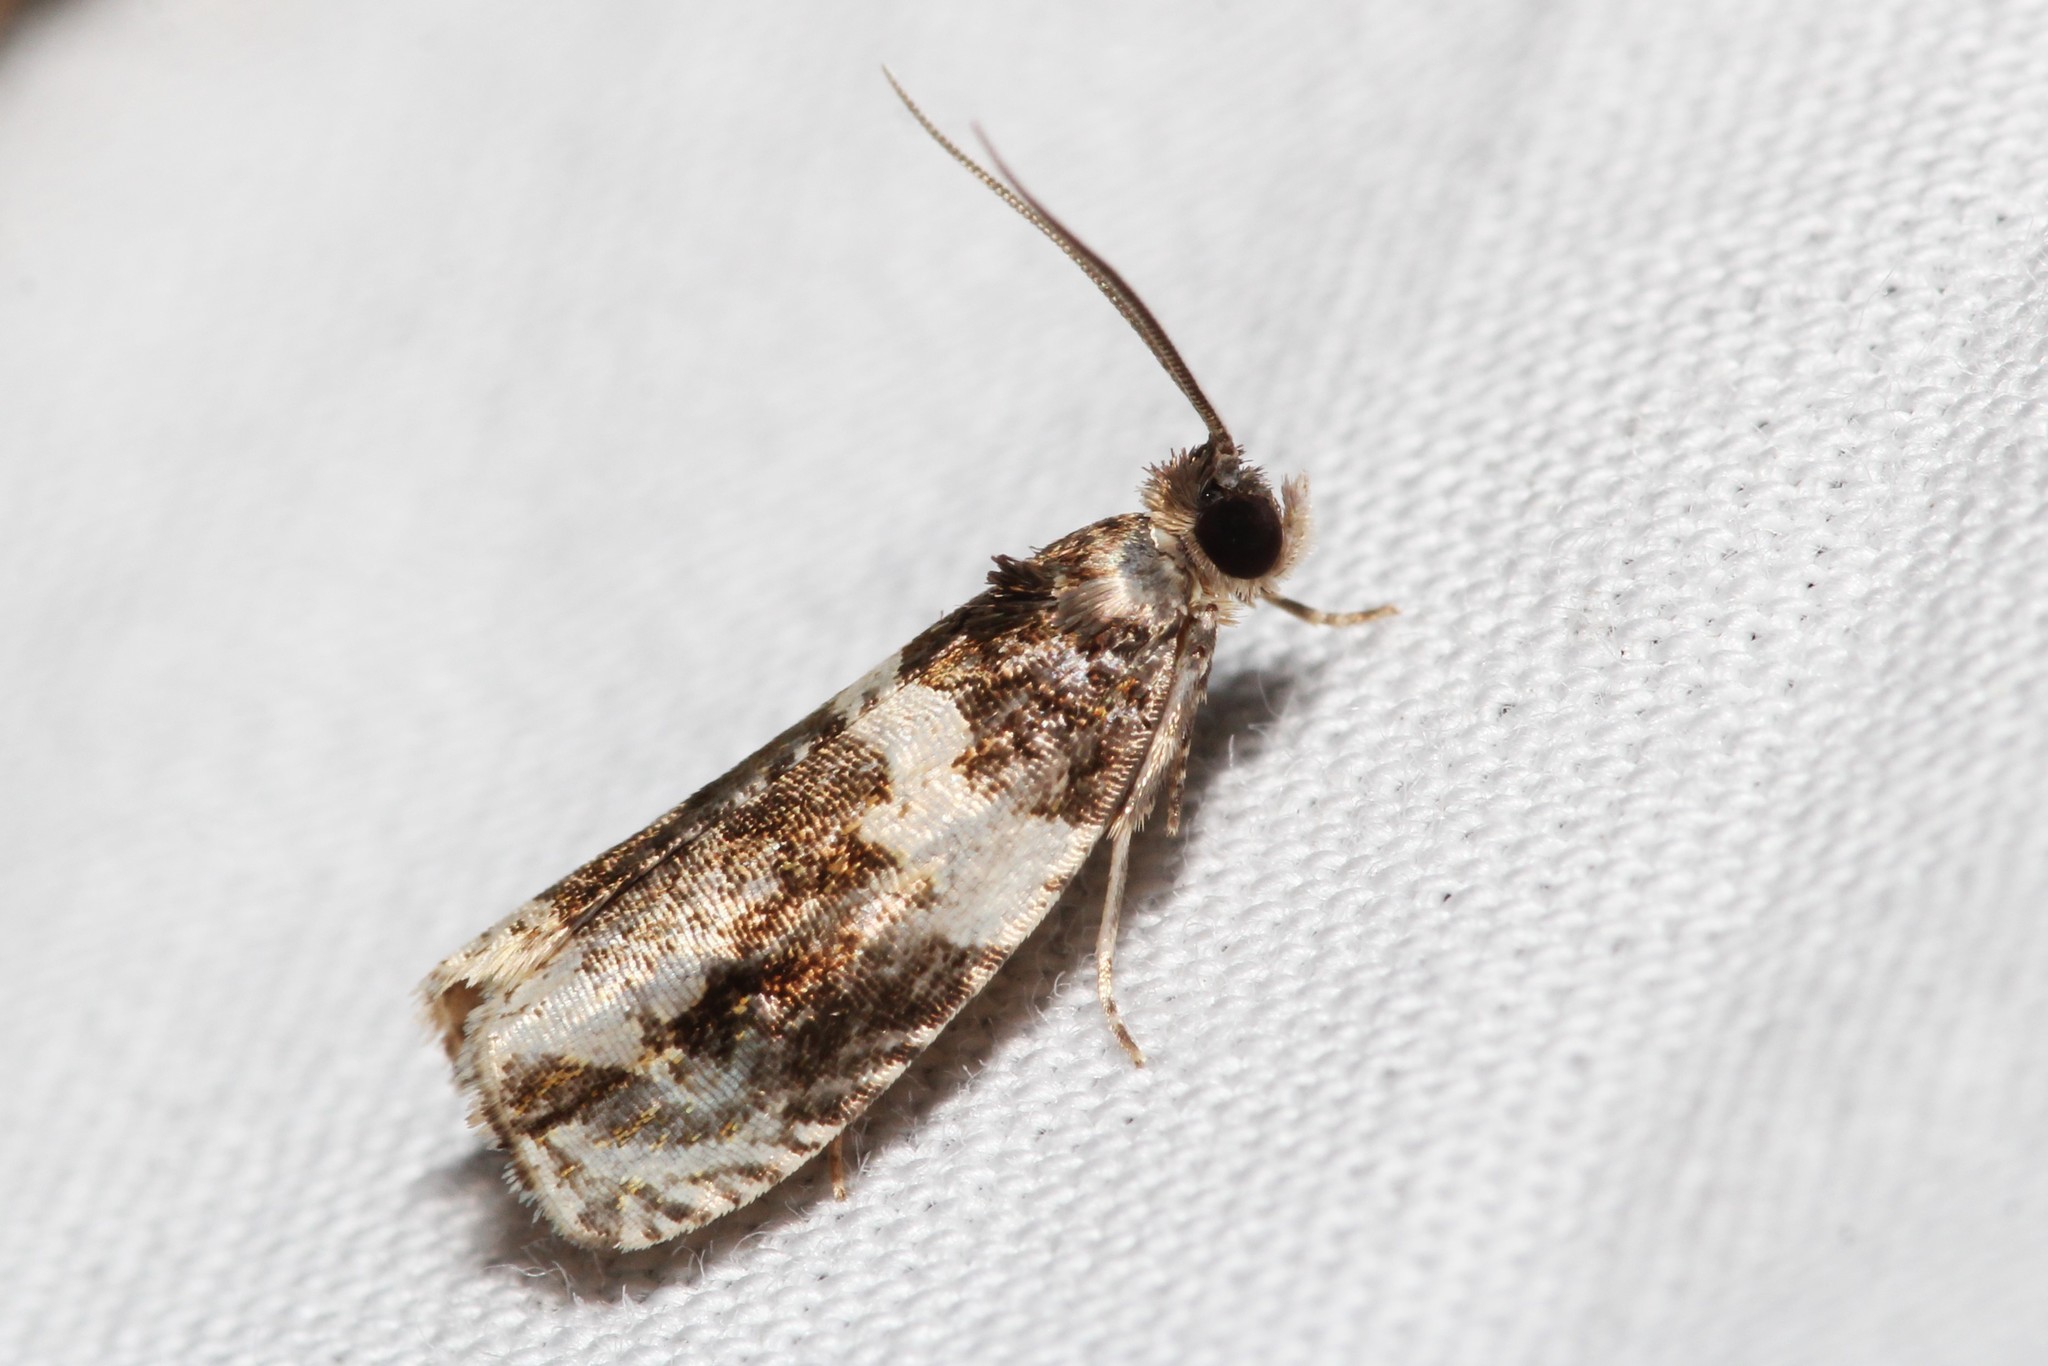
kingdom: Animalia
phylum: Arthropoda
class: Insecta
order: Lepidoptera
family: Tortricidae
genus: Olethreutes
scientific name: Olethreutes fasciatana
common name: Banded olethreutes moth
